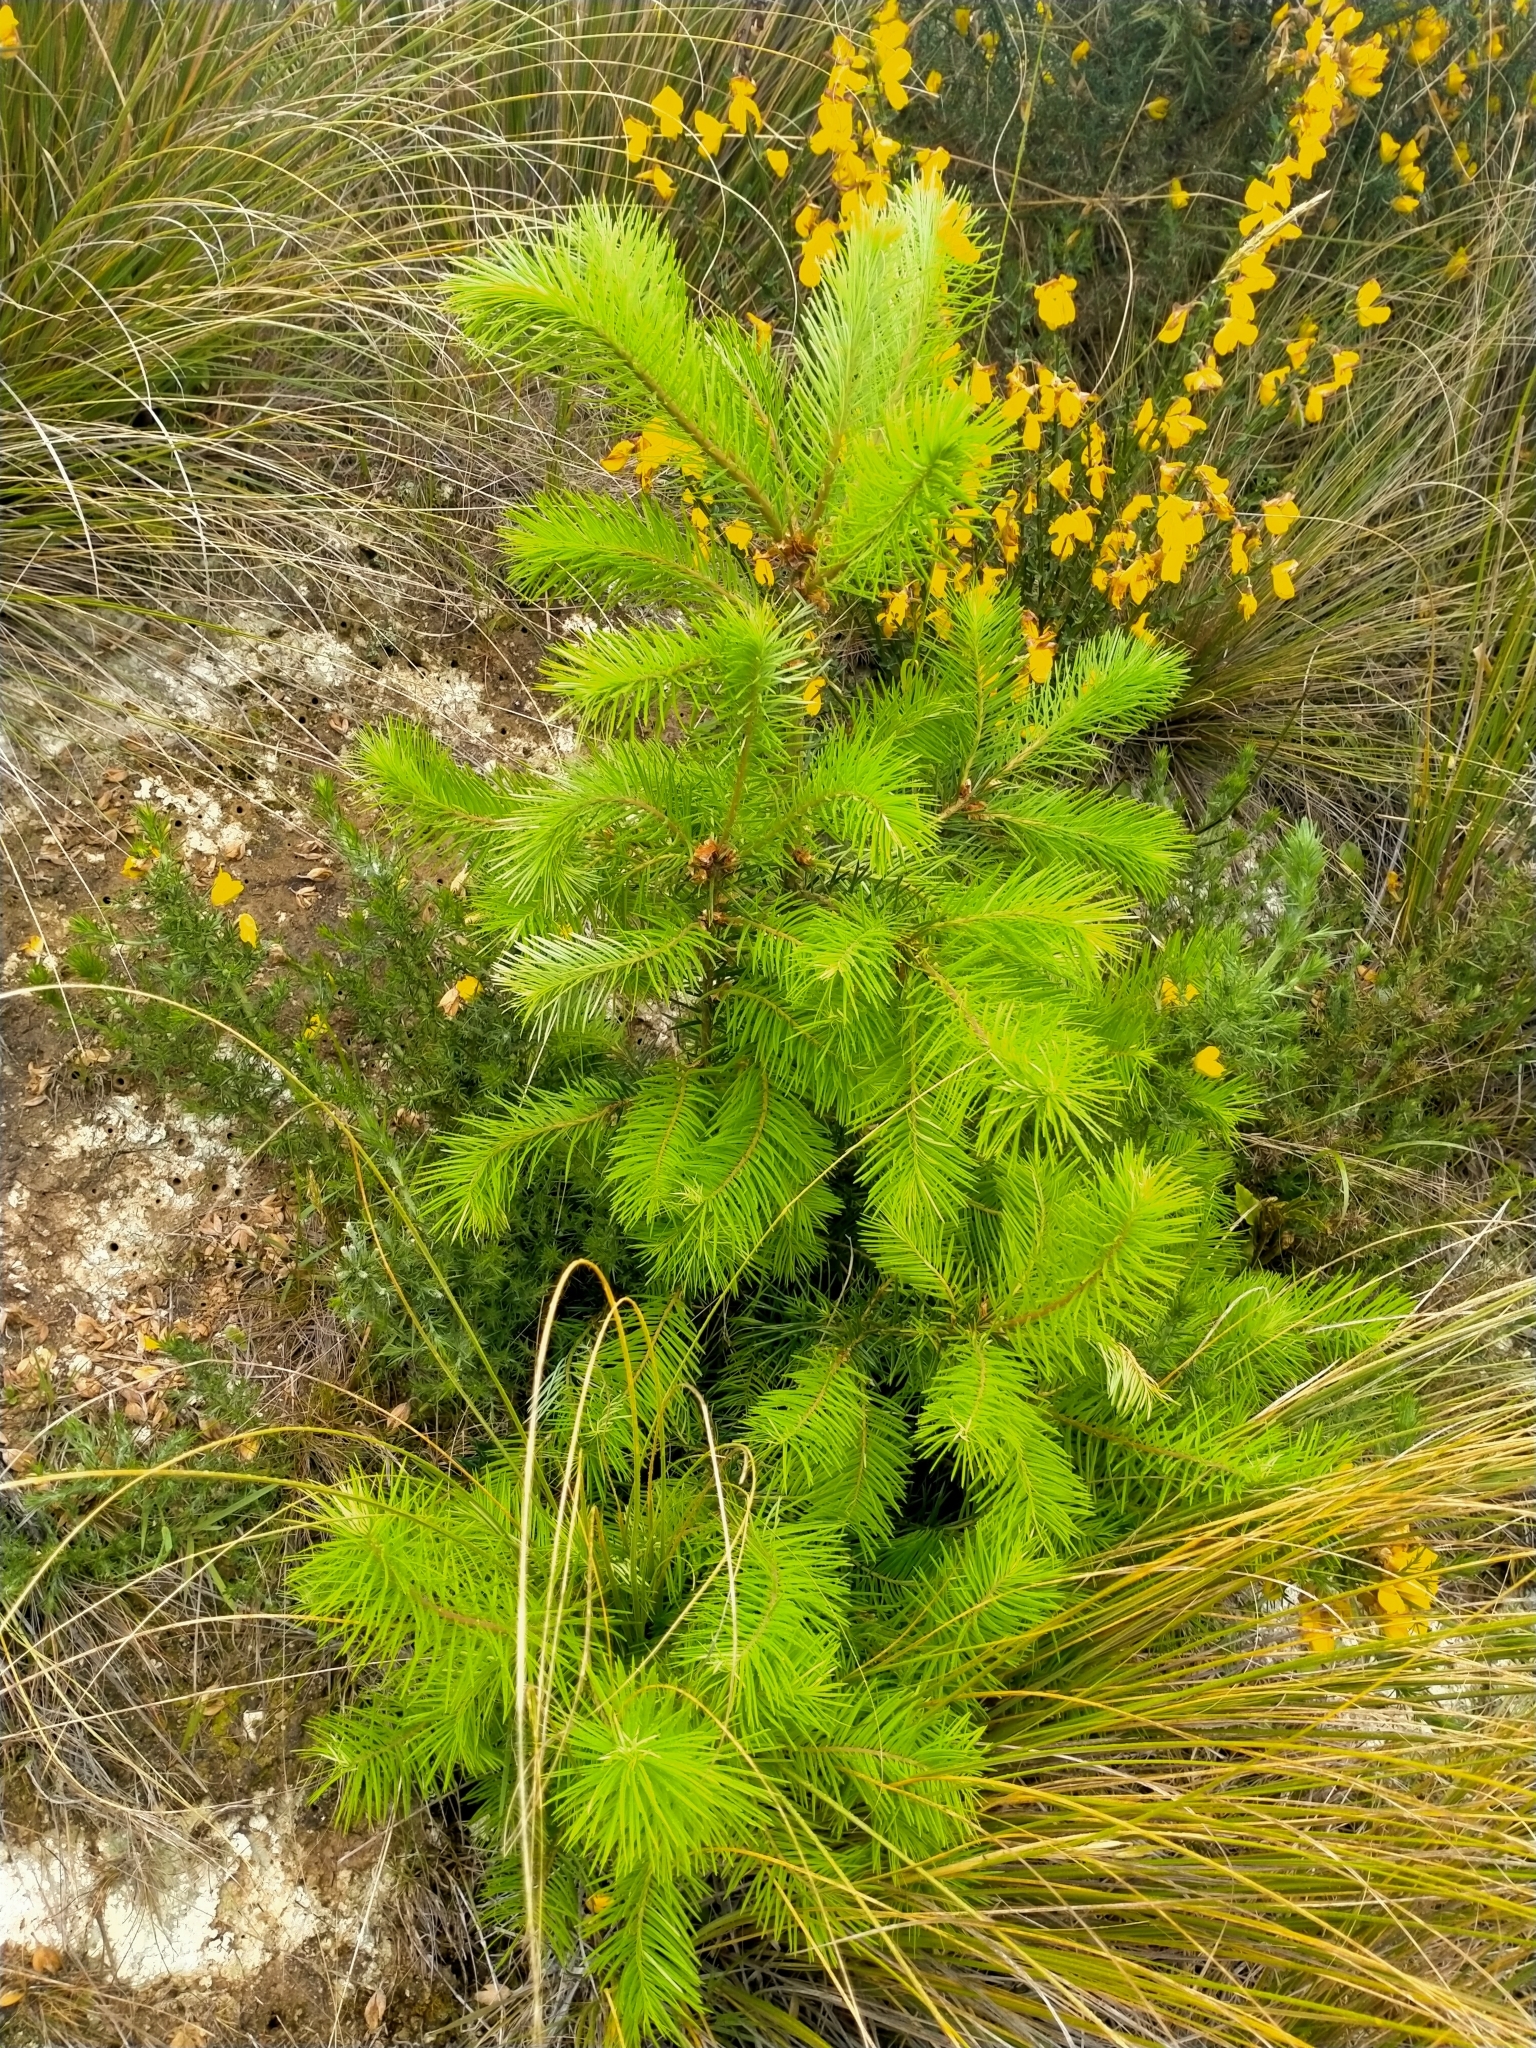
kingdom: Plantae
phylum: Tracheophyta
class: Pinopsida
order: Pinales
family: Pinaceae
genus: Pseudotsuga
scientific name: Pseudotsuga menziesii
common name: Douglas fir
